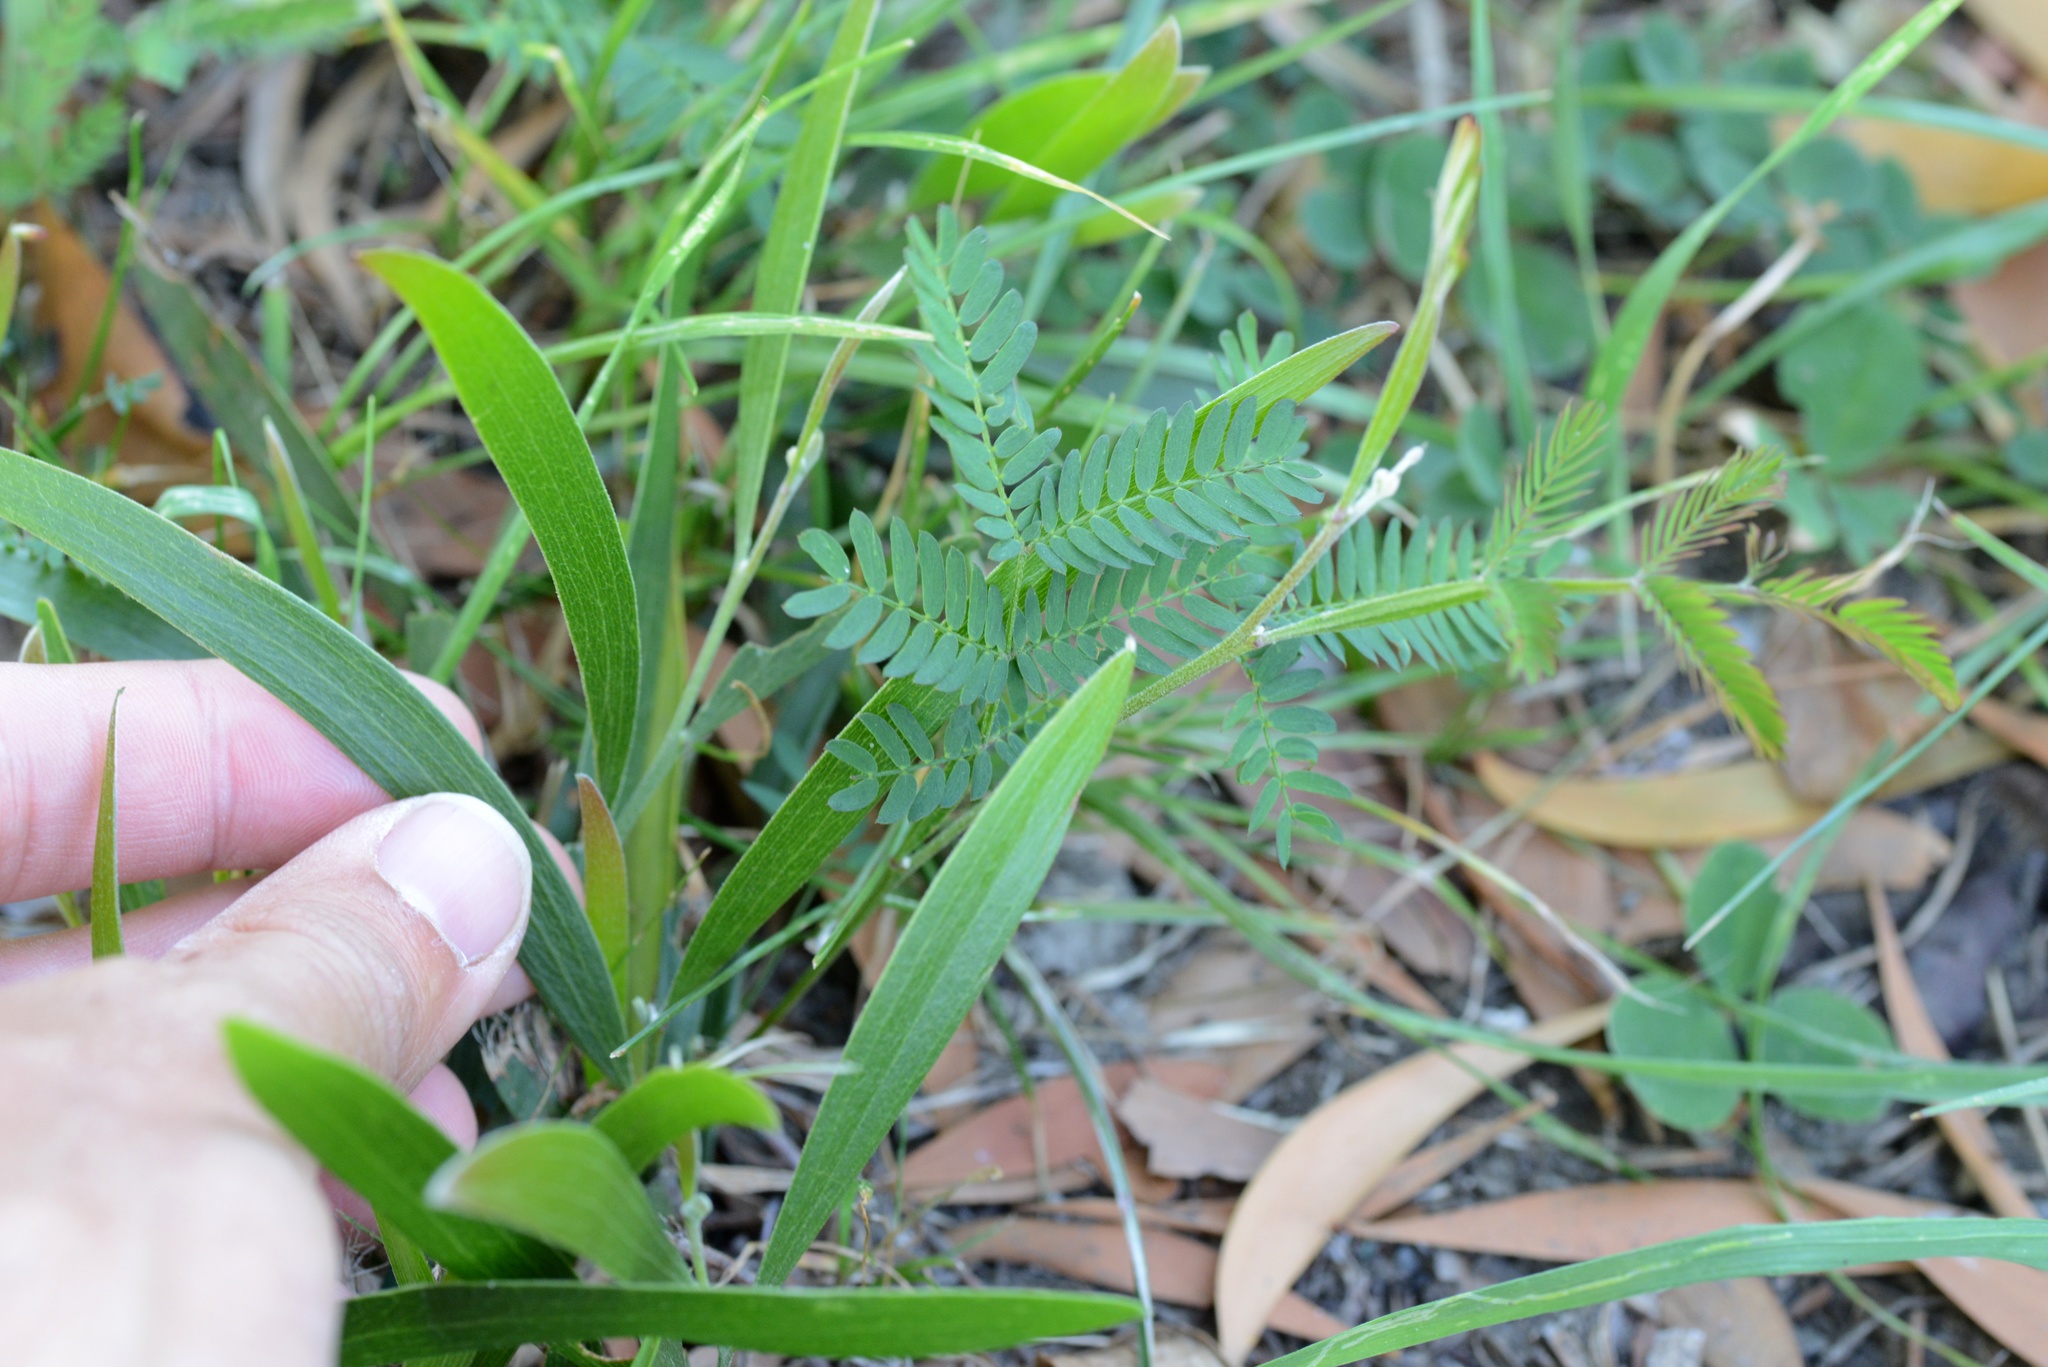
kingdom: Plantae
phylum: Tracheophyta
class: Magnoliopsida
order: Fabales
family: Fabaceae
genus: Acacia
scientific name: Acacia melanoxylon
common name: Blackwood
